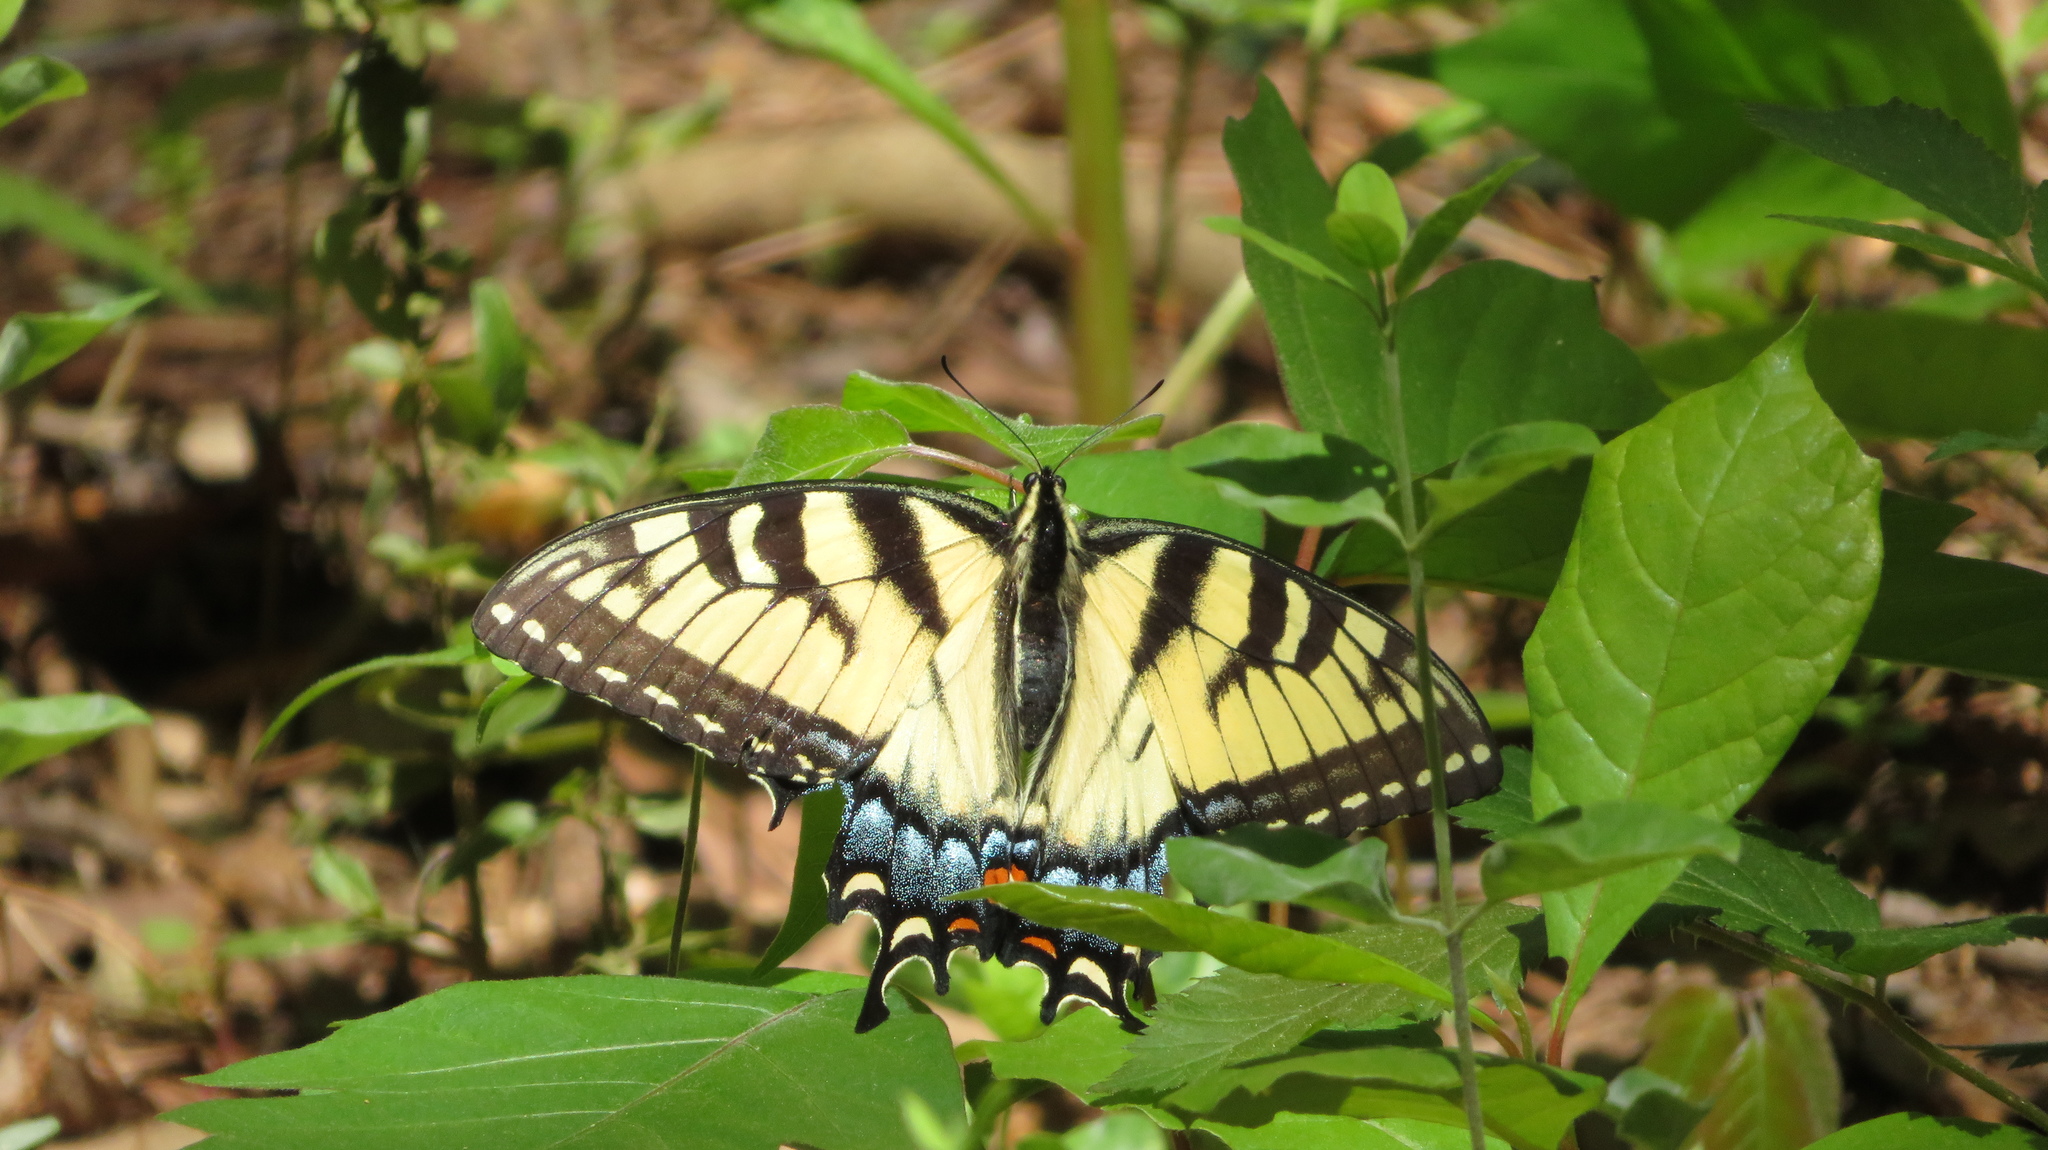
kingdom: Animalia
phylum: Arthropoda
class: Insecta
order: Lepidoptera
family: Papilionidae
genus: Papilio
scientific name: Papilio glaucus
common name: Tiger swallowtail
